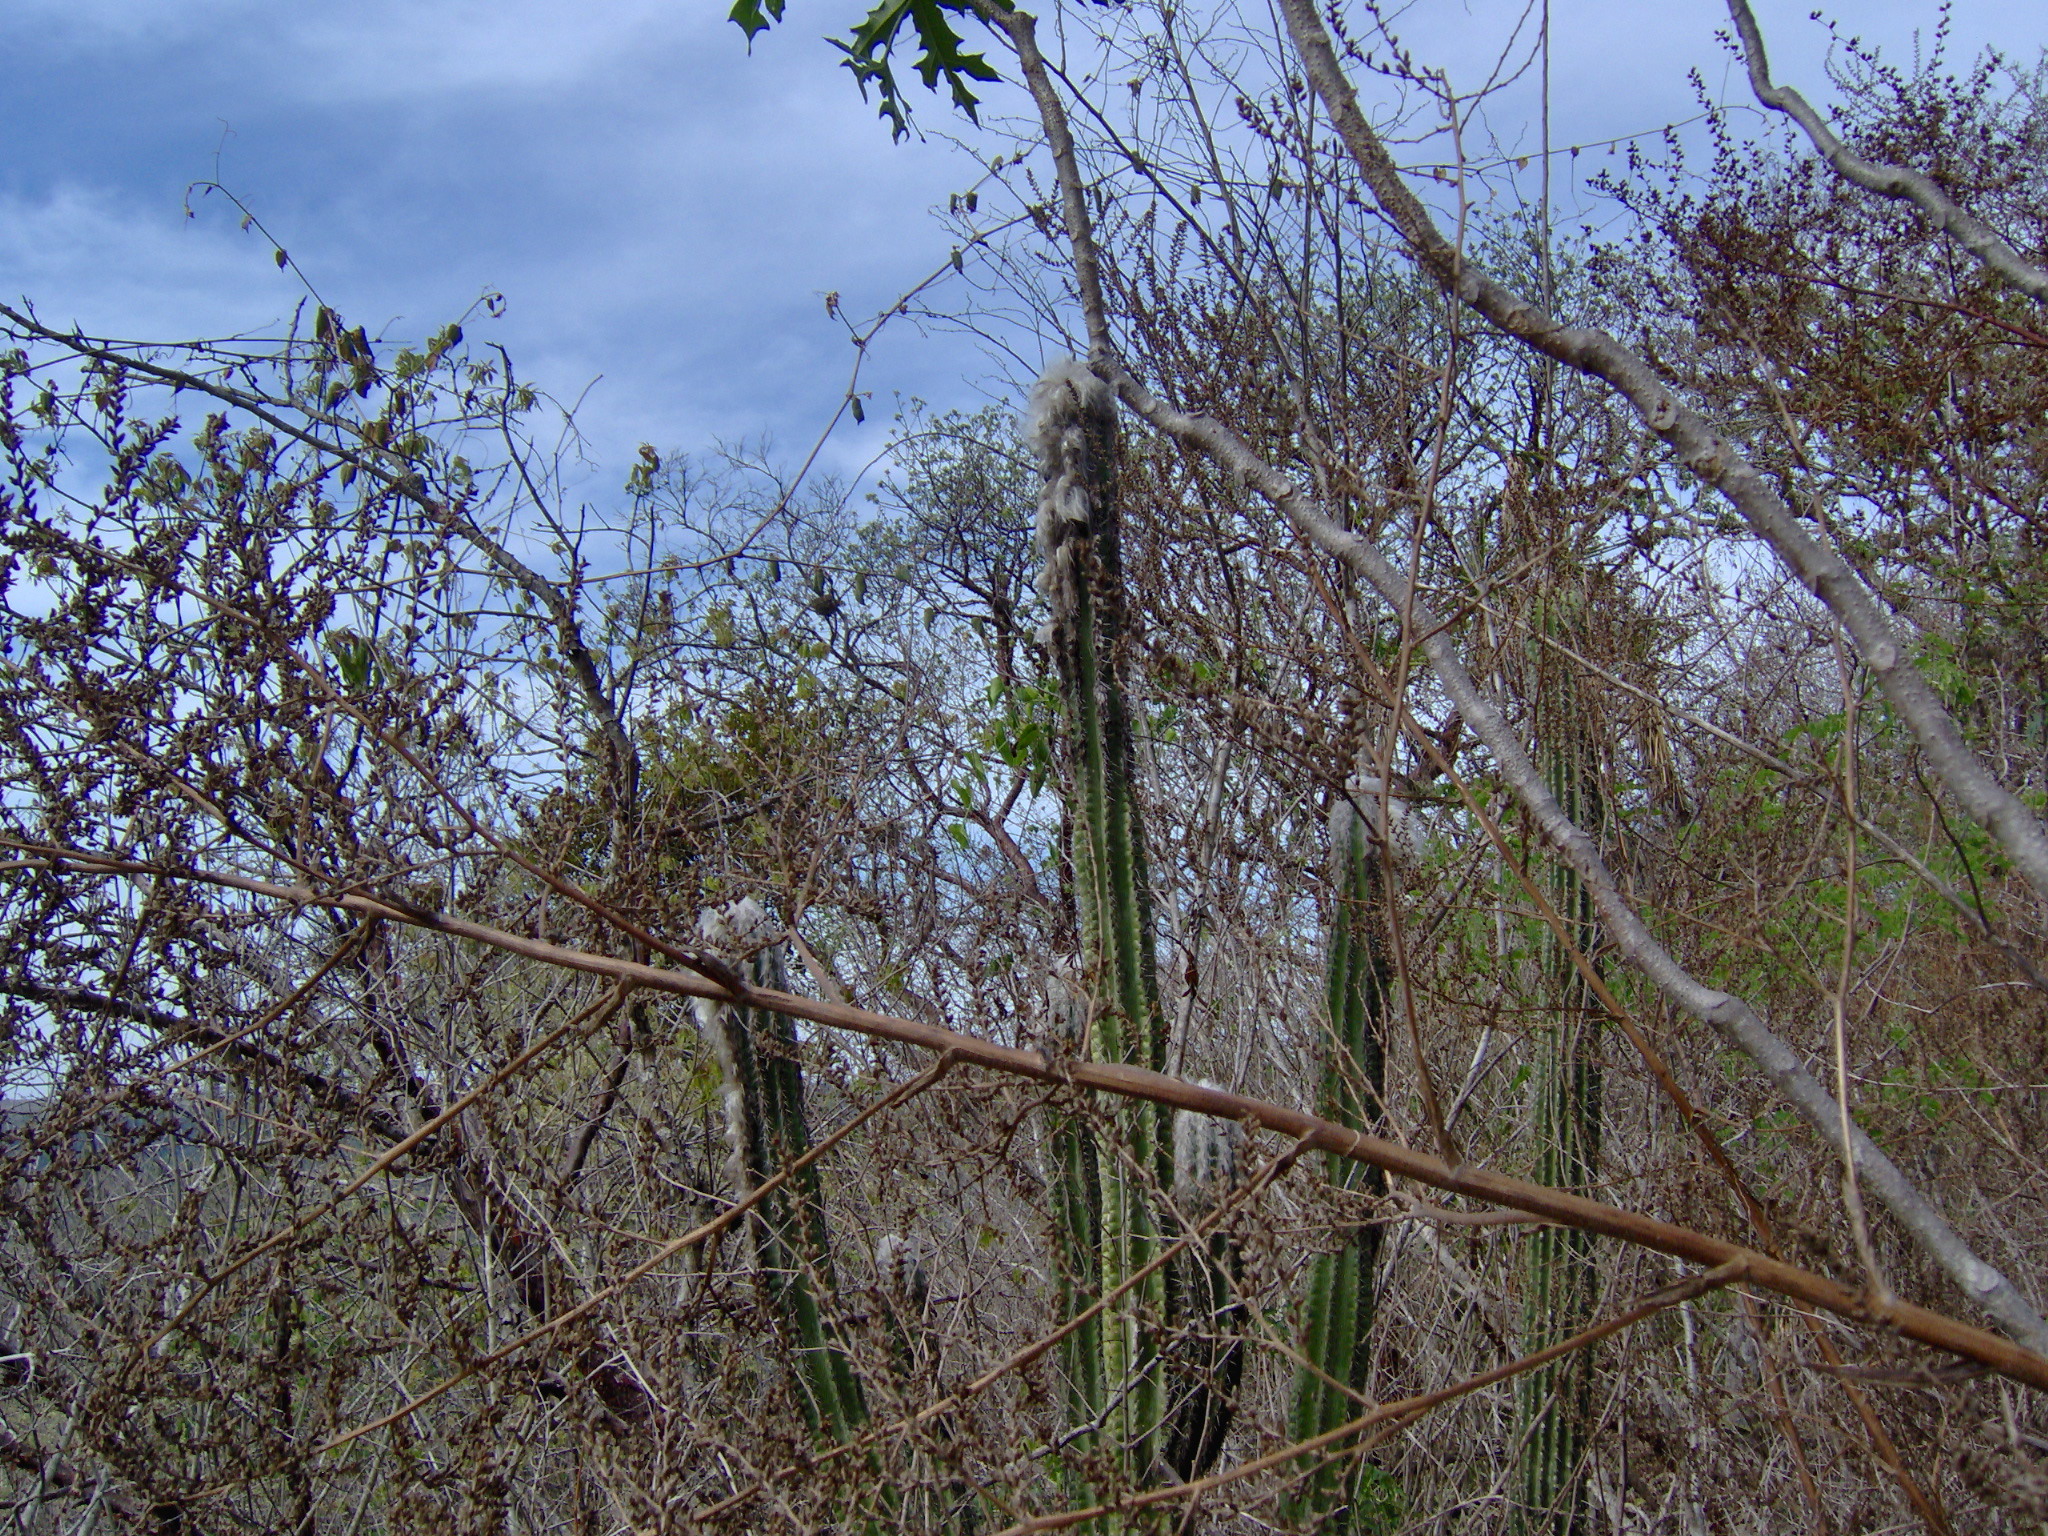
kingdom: Plantae
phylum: Tracheophyta
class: Magnoliopsida
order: Caryophyllales
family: Cactaceae
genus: Pilosocereus
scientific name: Pilosocereus leucocephalus
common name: Old man cactus
